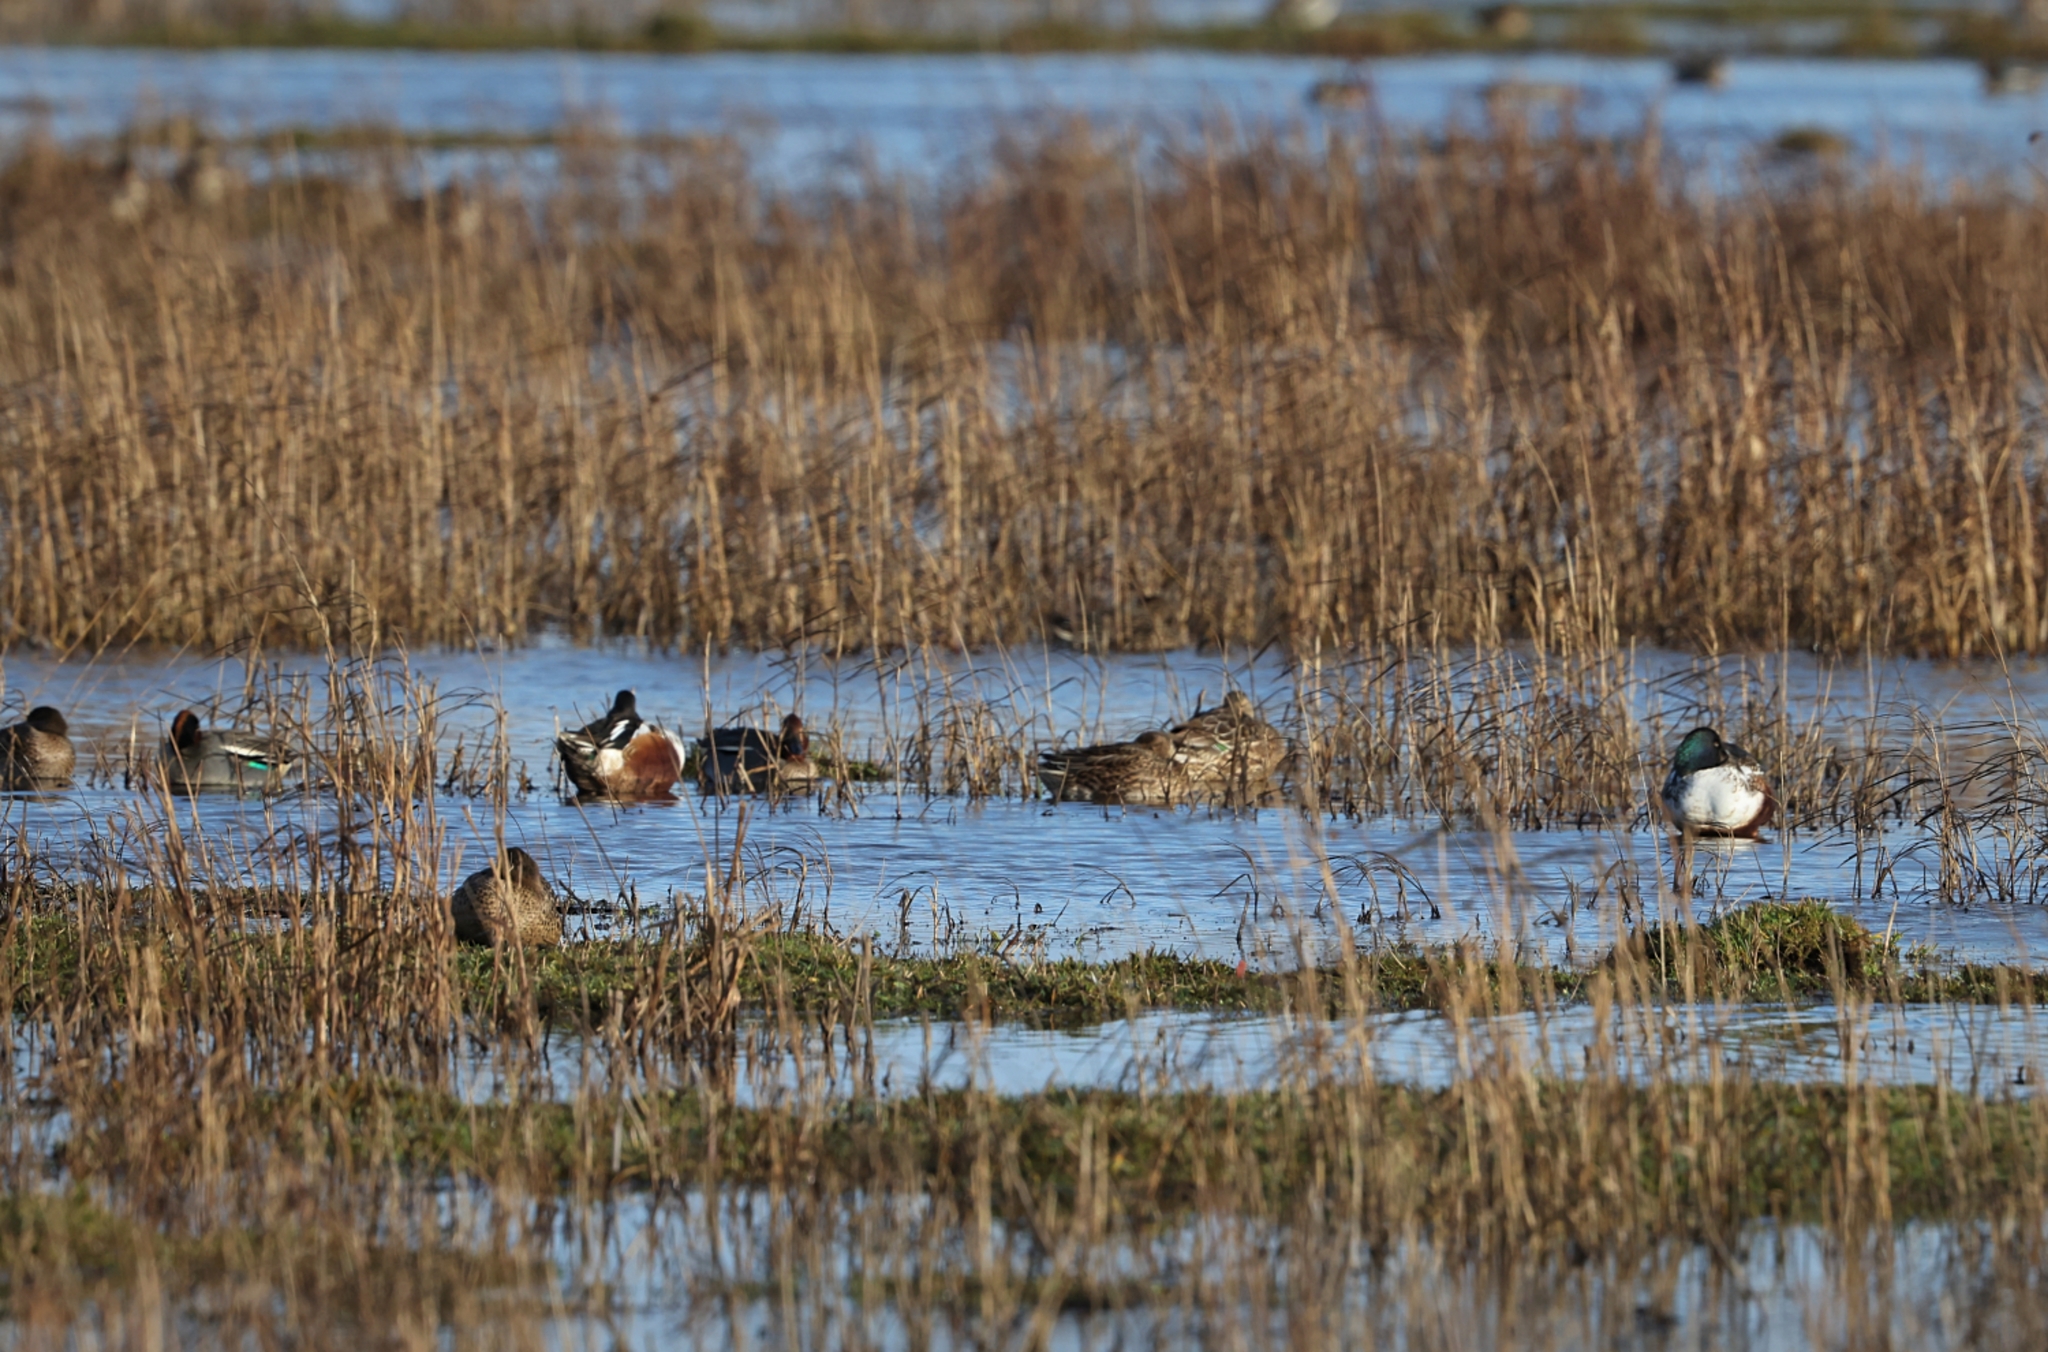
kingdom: Animalia
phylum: Chordata
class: Aves
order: Anseriformes
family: Anatidae
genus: Spatula
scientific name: Spatula clypeata
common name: Northern shoveler
